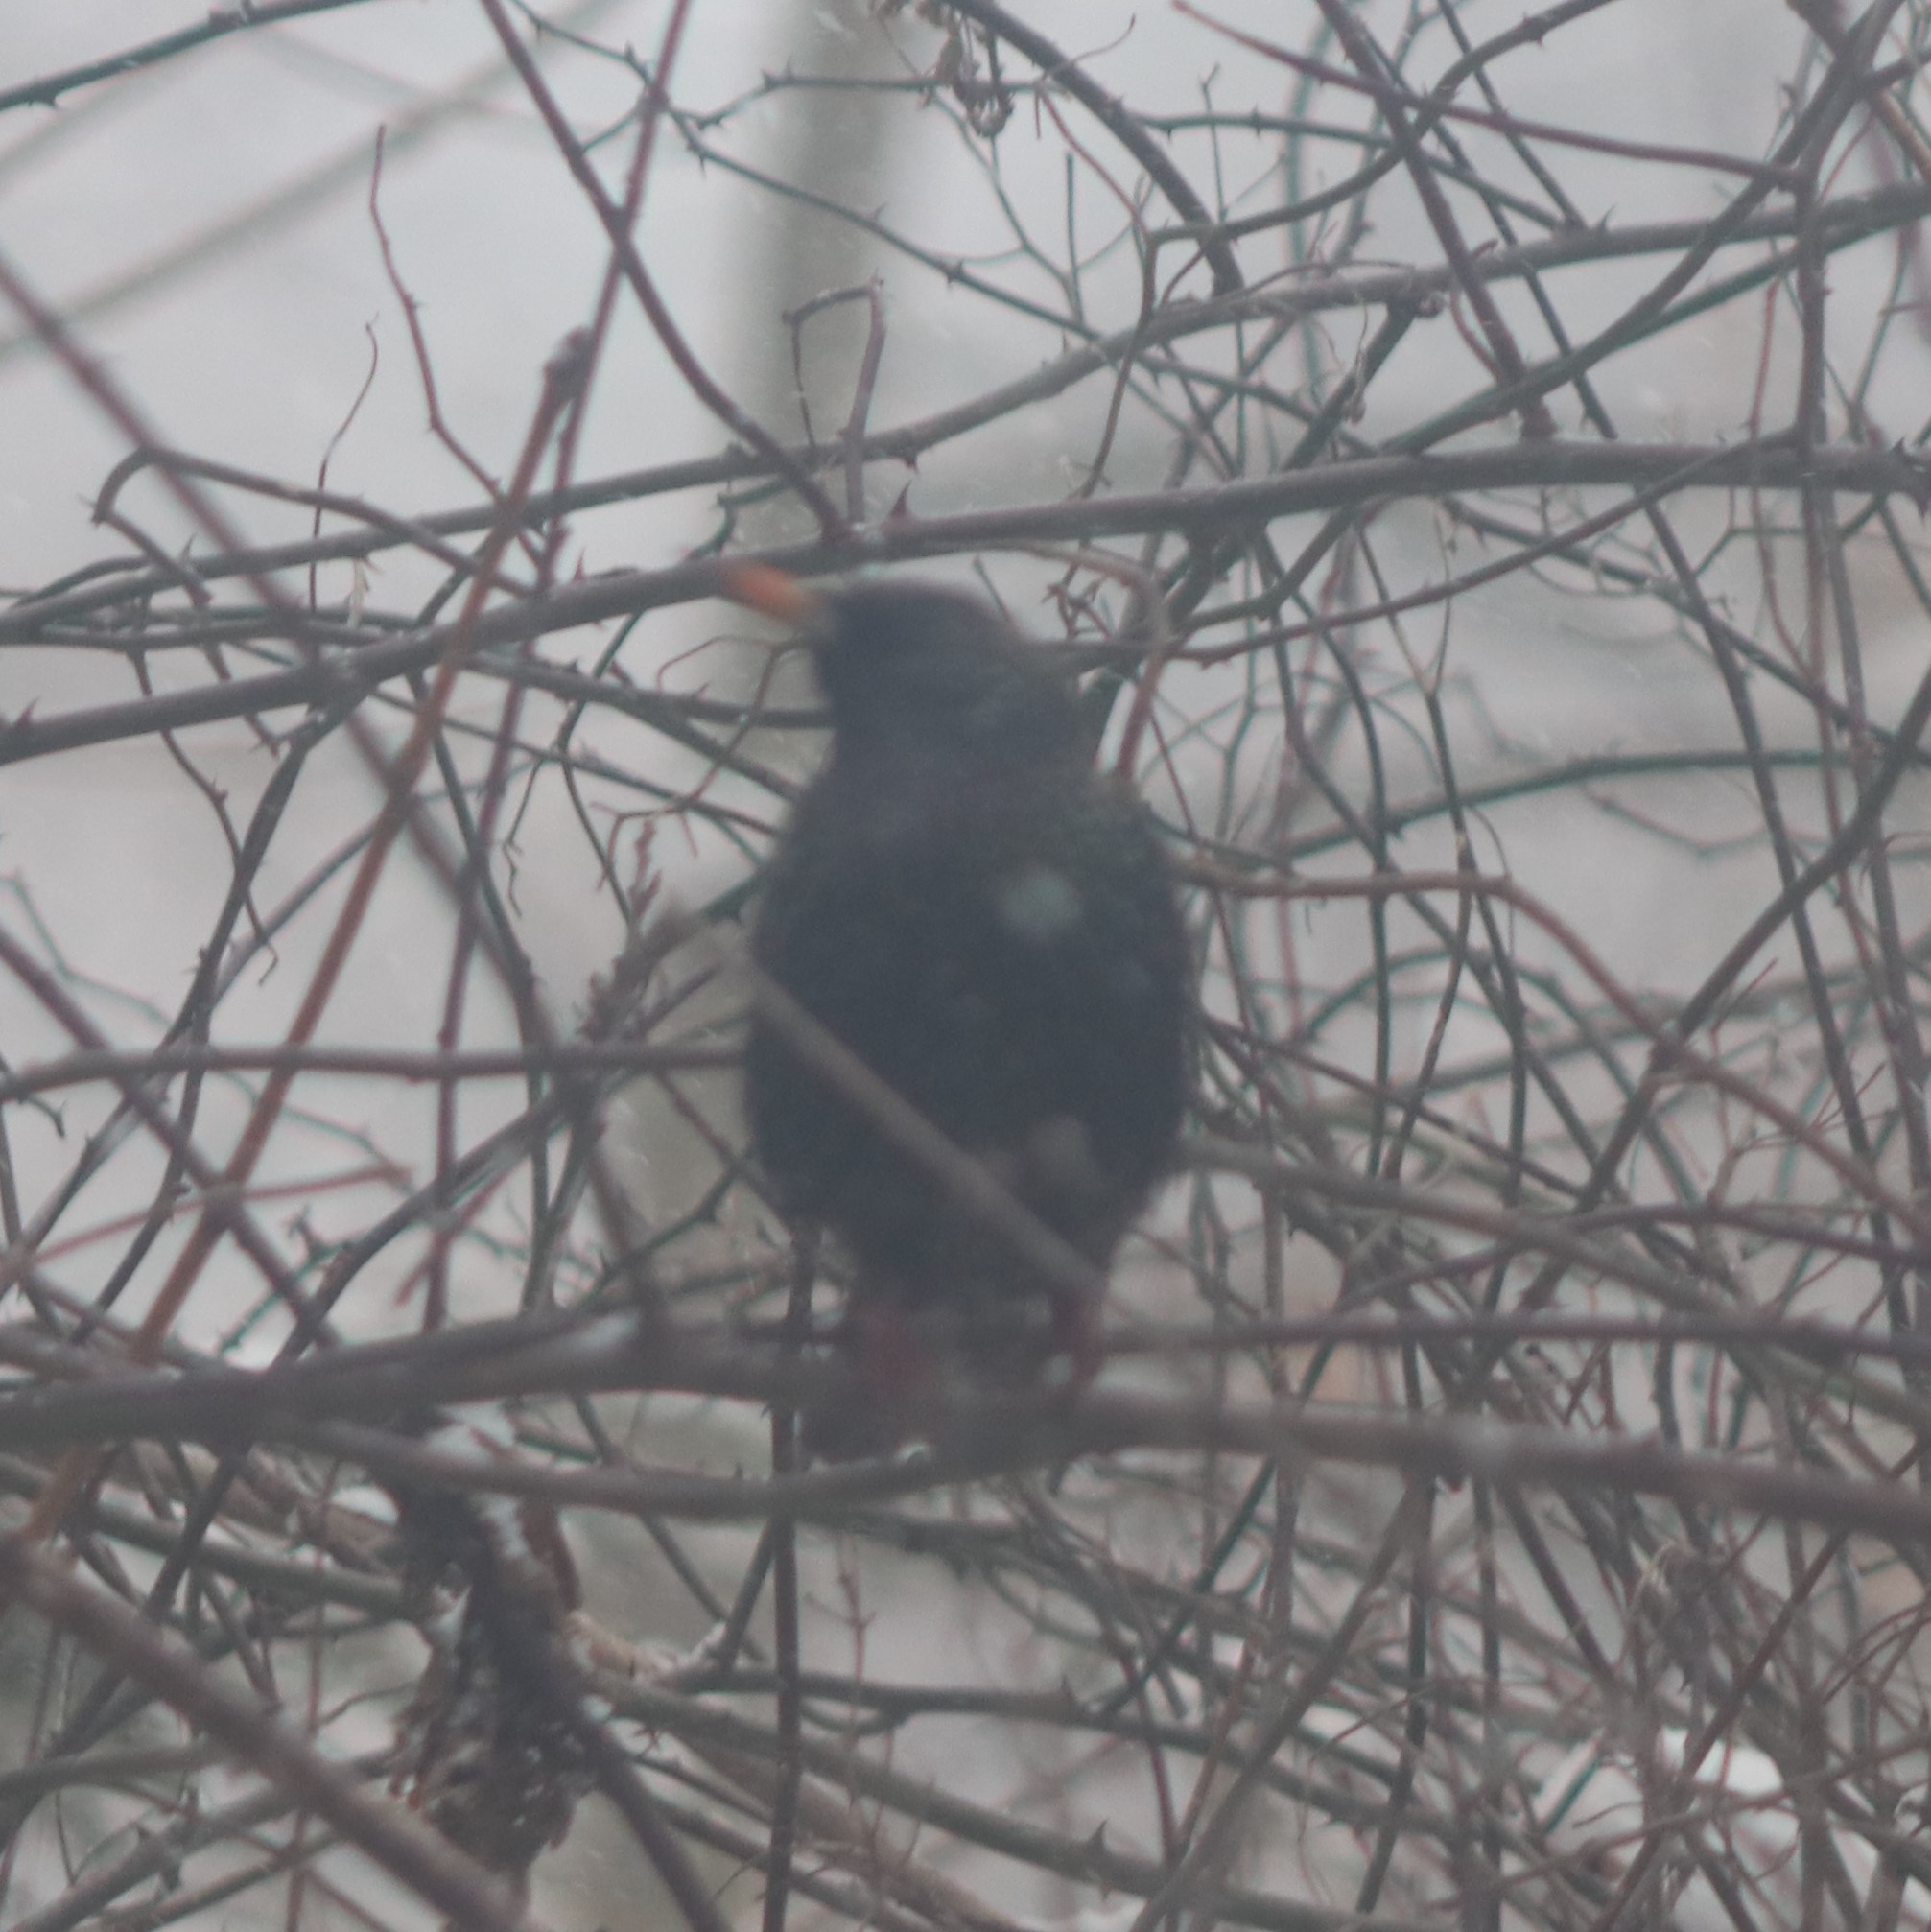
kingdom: Animalia
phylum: Chordata
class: Aves
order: Passeriformes
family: Sturnidae
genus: Sturnus
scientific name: Sturnus vulgaris
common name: Common starling
